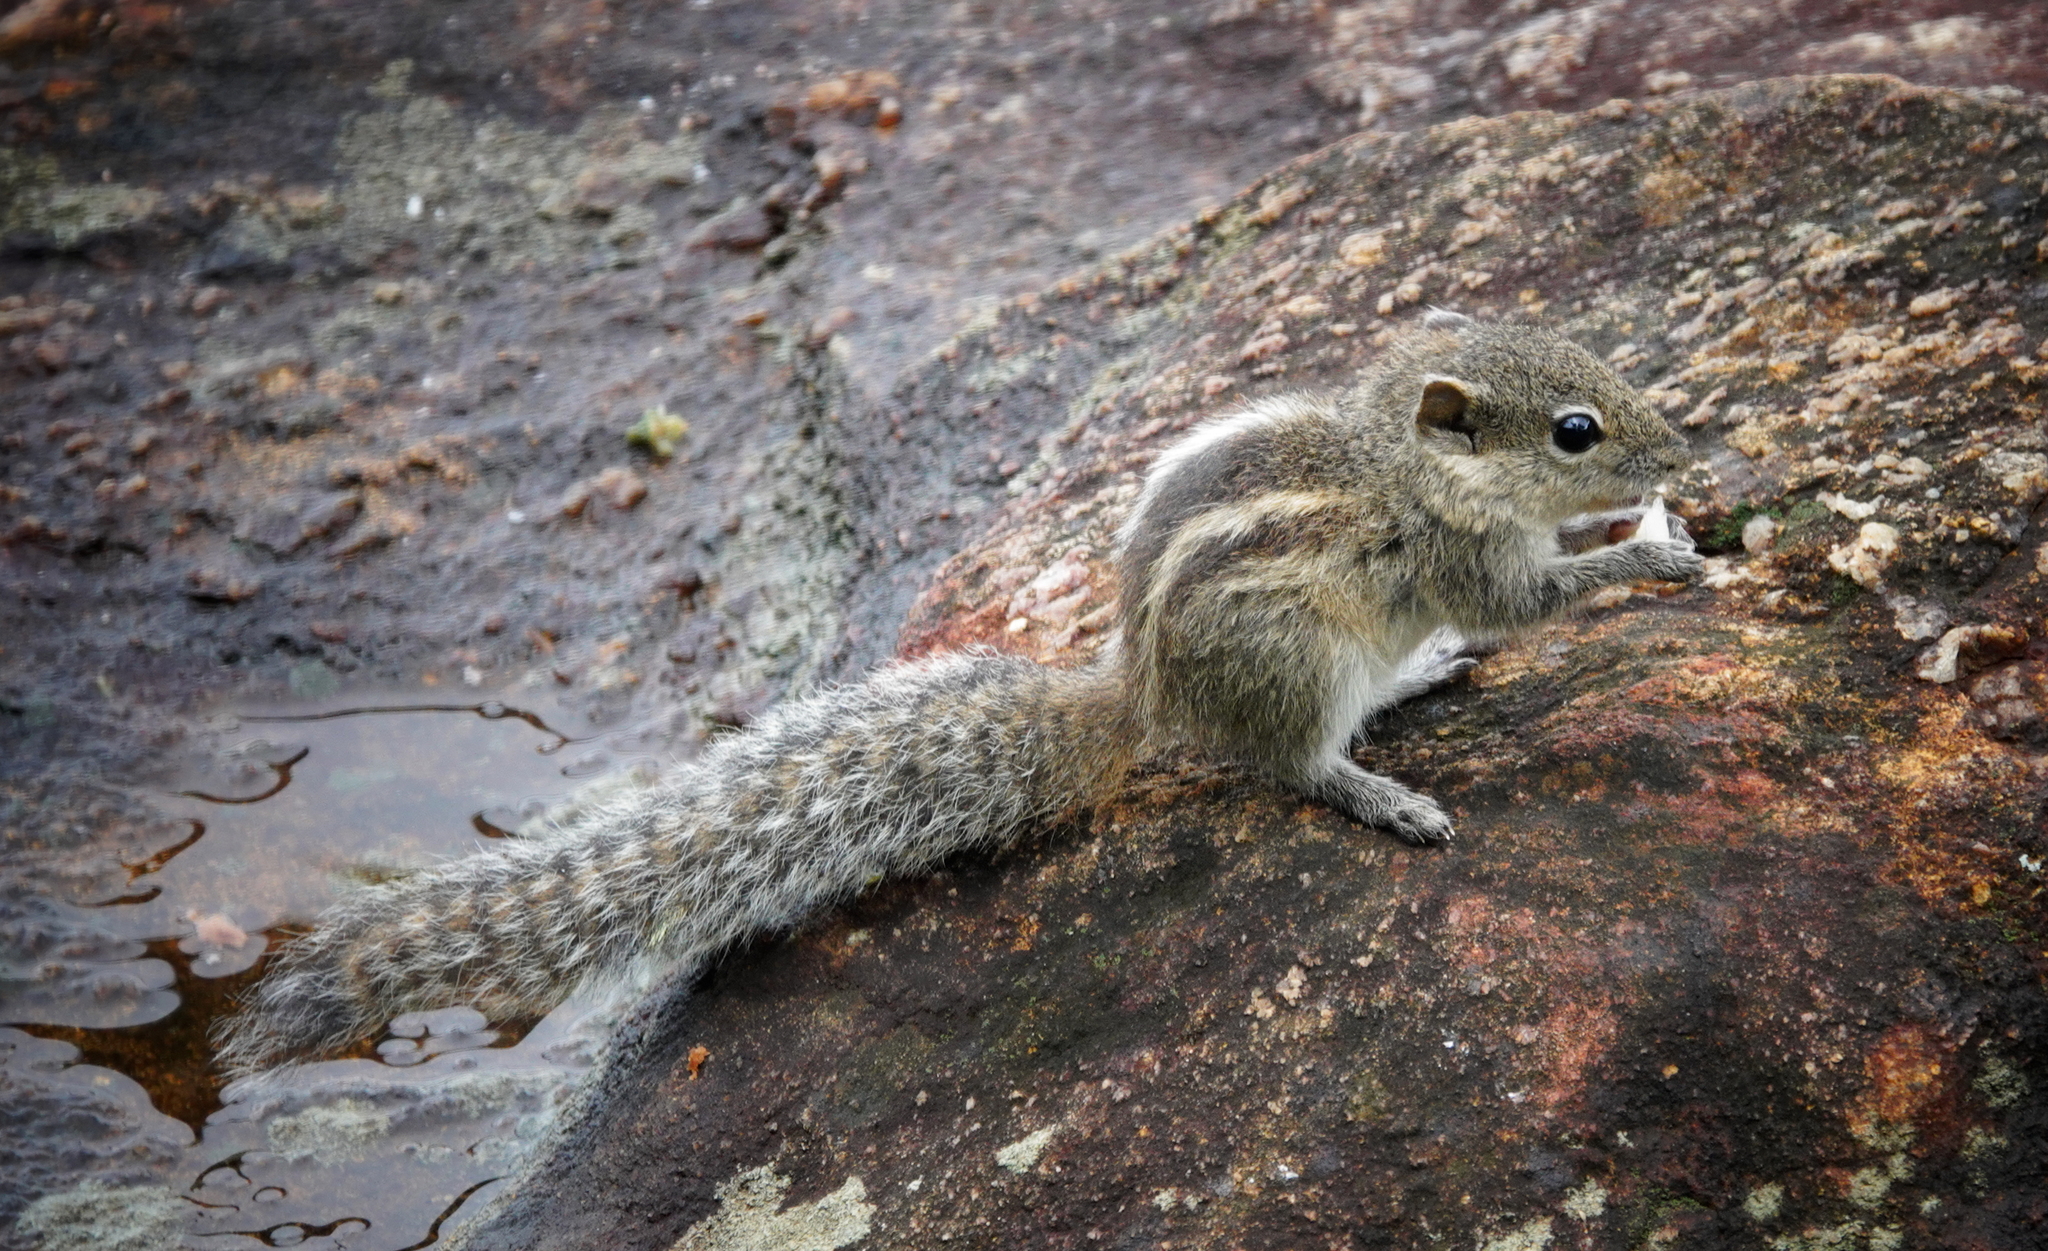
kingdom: Animalia
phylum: Chordata
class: Mammalia
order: Rodentia
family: Sciuridae
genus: Funambulus
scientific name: Funambulus palmarum
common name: Indian palm squirrel
